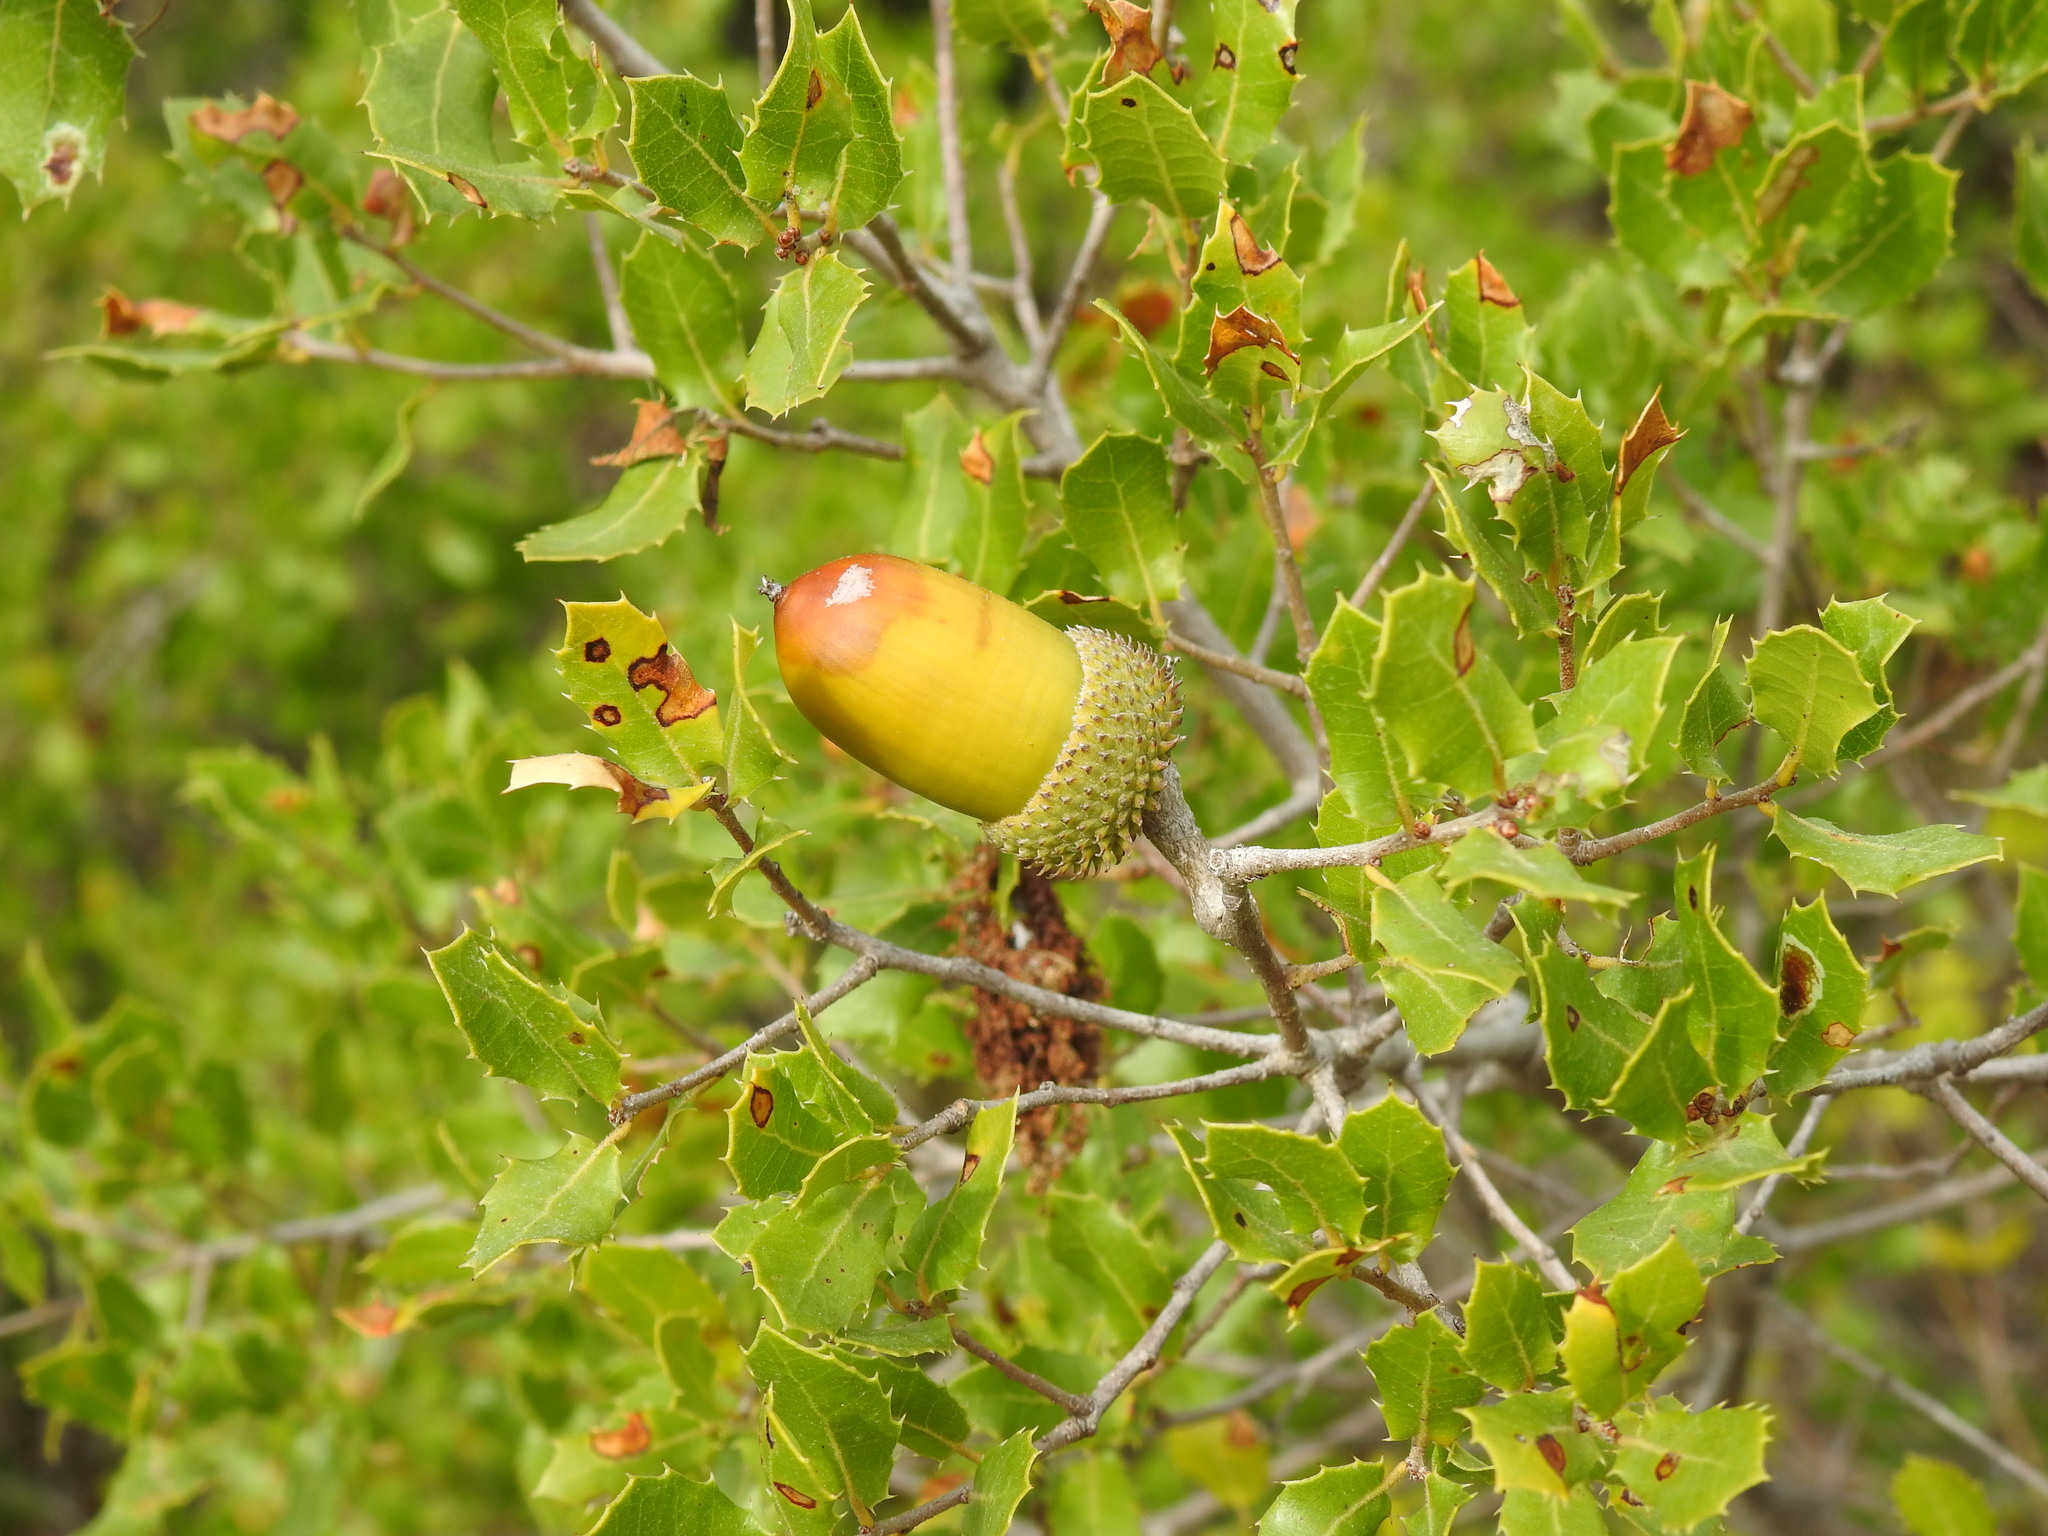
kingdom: Plantae
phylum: Tracheophyta
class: Magnoliopsida
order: Fagales
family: Fagaceae
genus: Quercus
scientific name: Quercus coccifera
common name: Kermes oak
